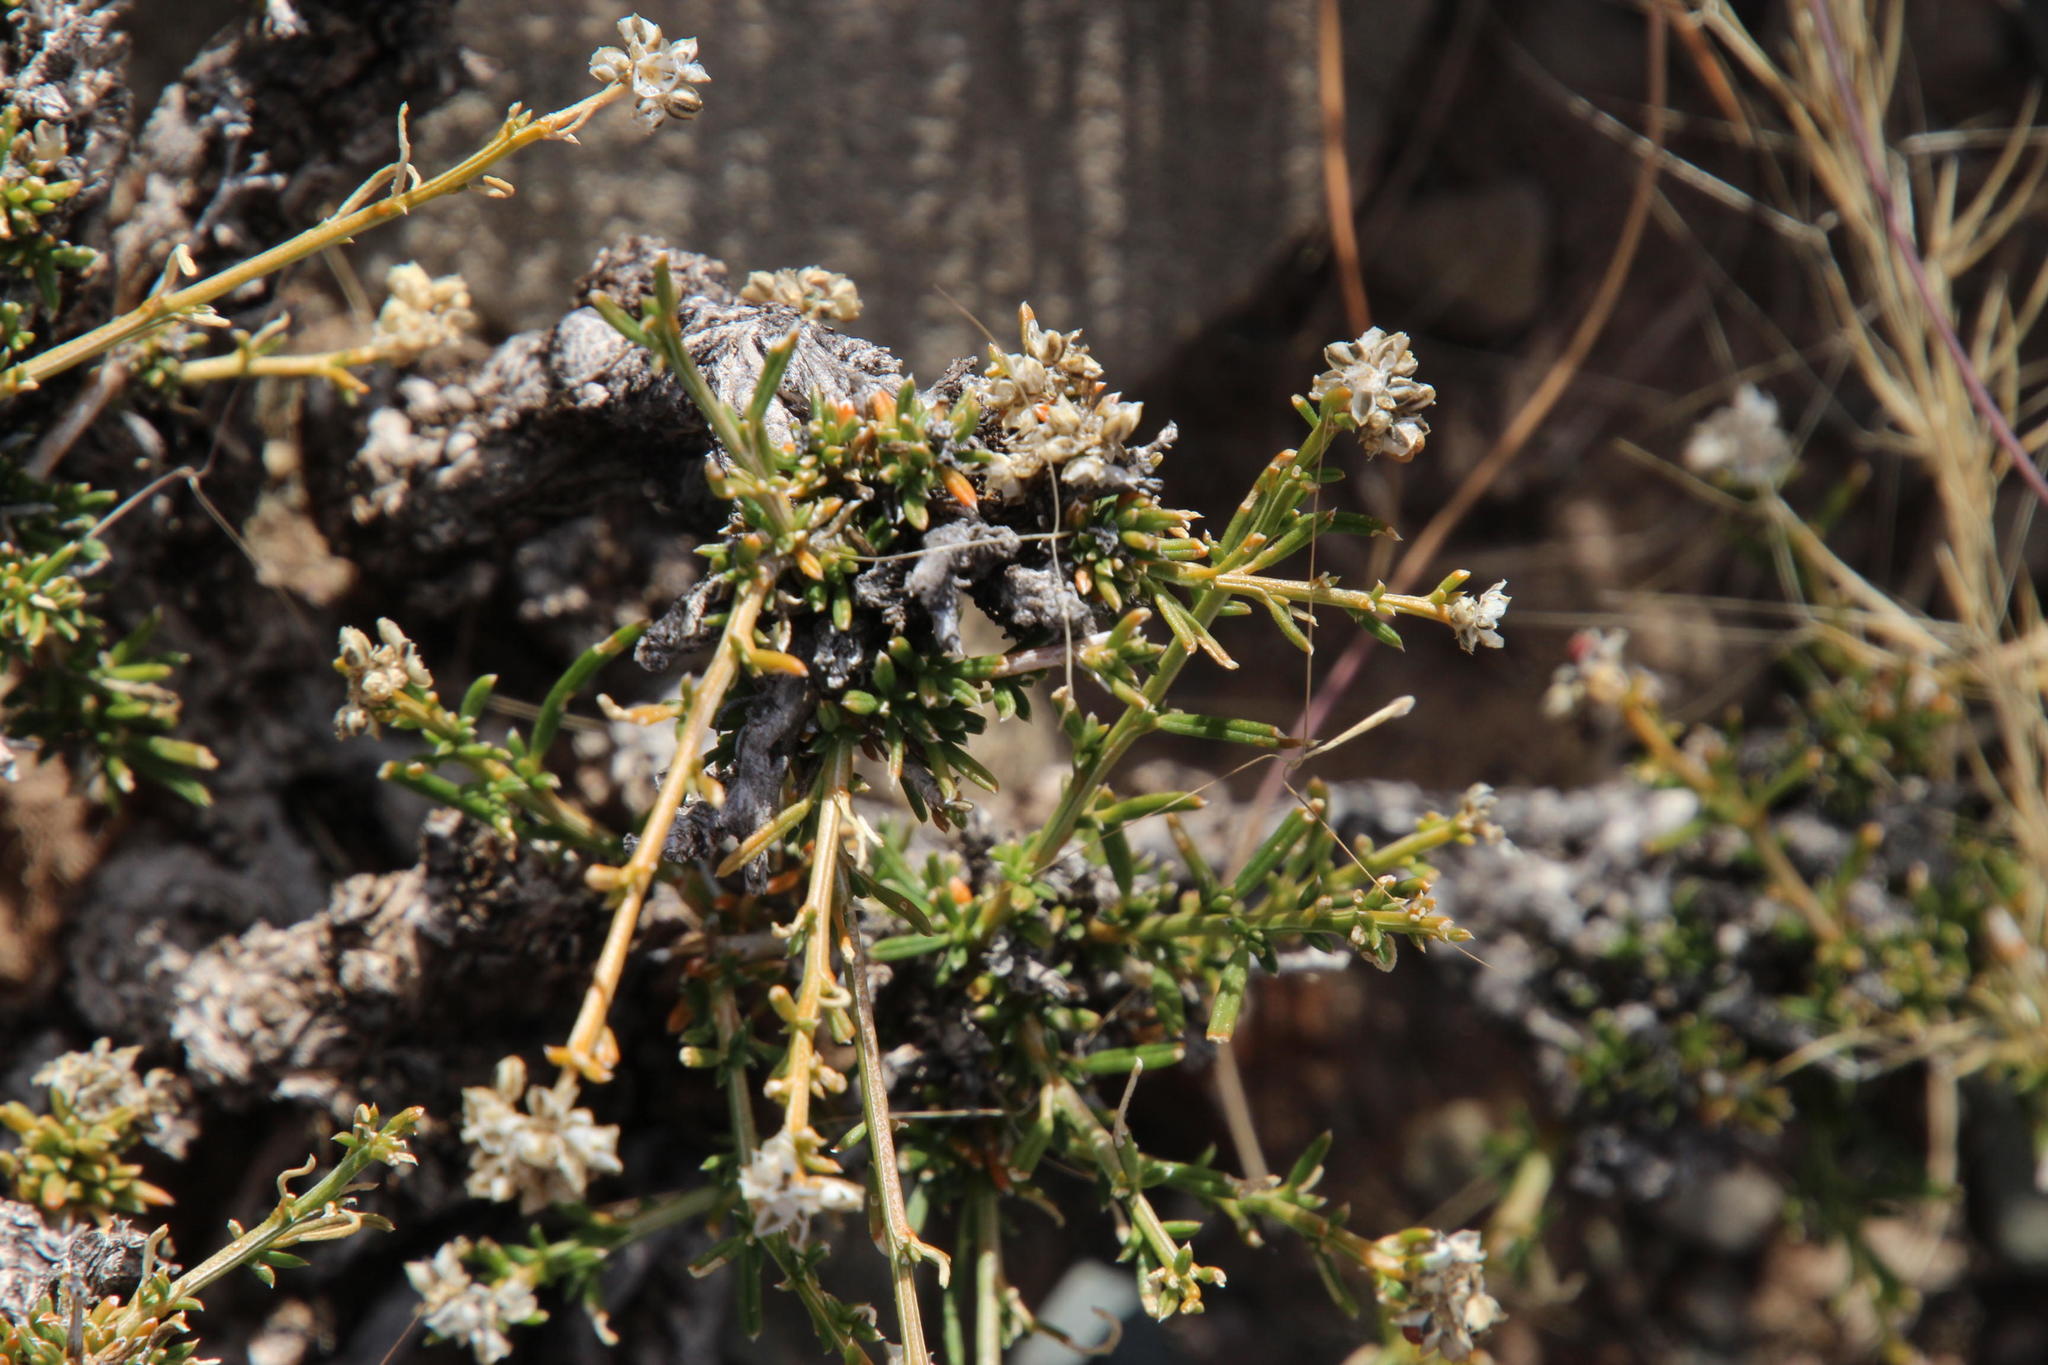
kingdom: Plantae
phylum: Tracheophyta
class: Magnoliopsida
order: Caryophyllales
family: Limeaceae
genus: Limeum
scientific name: Limeum aethiopicum
